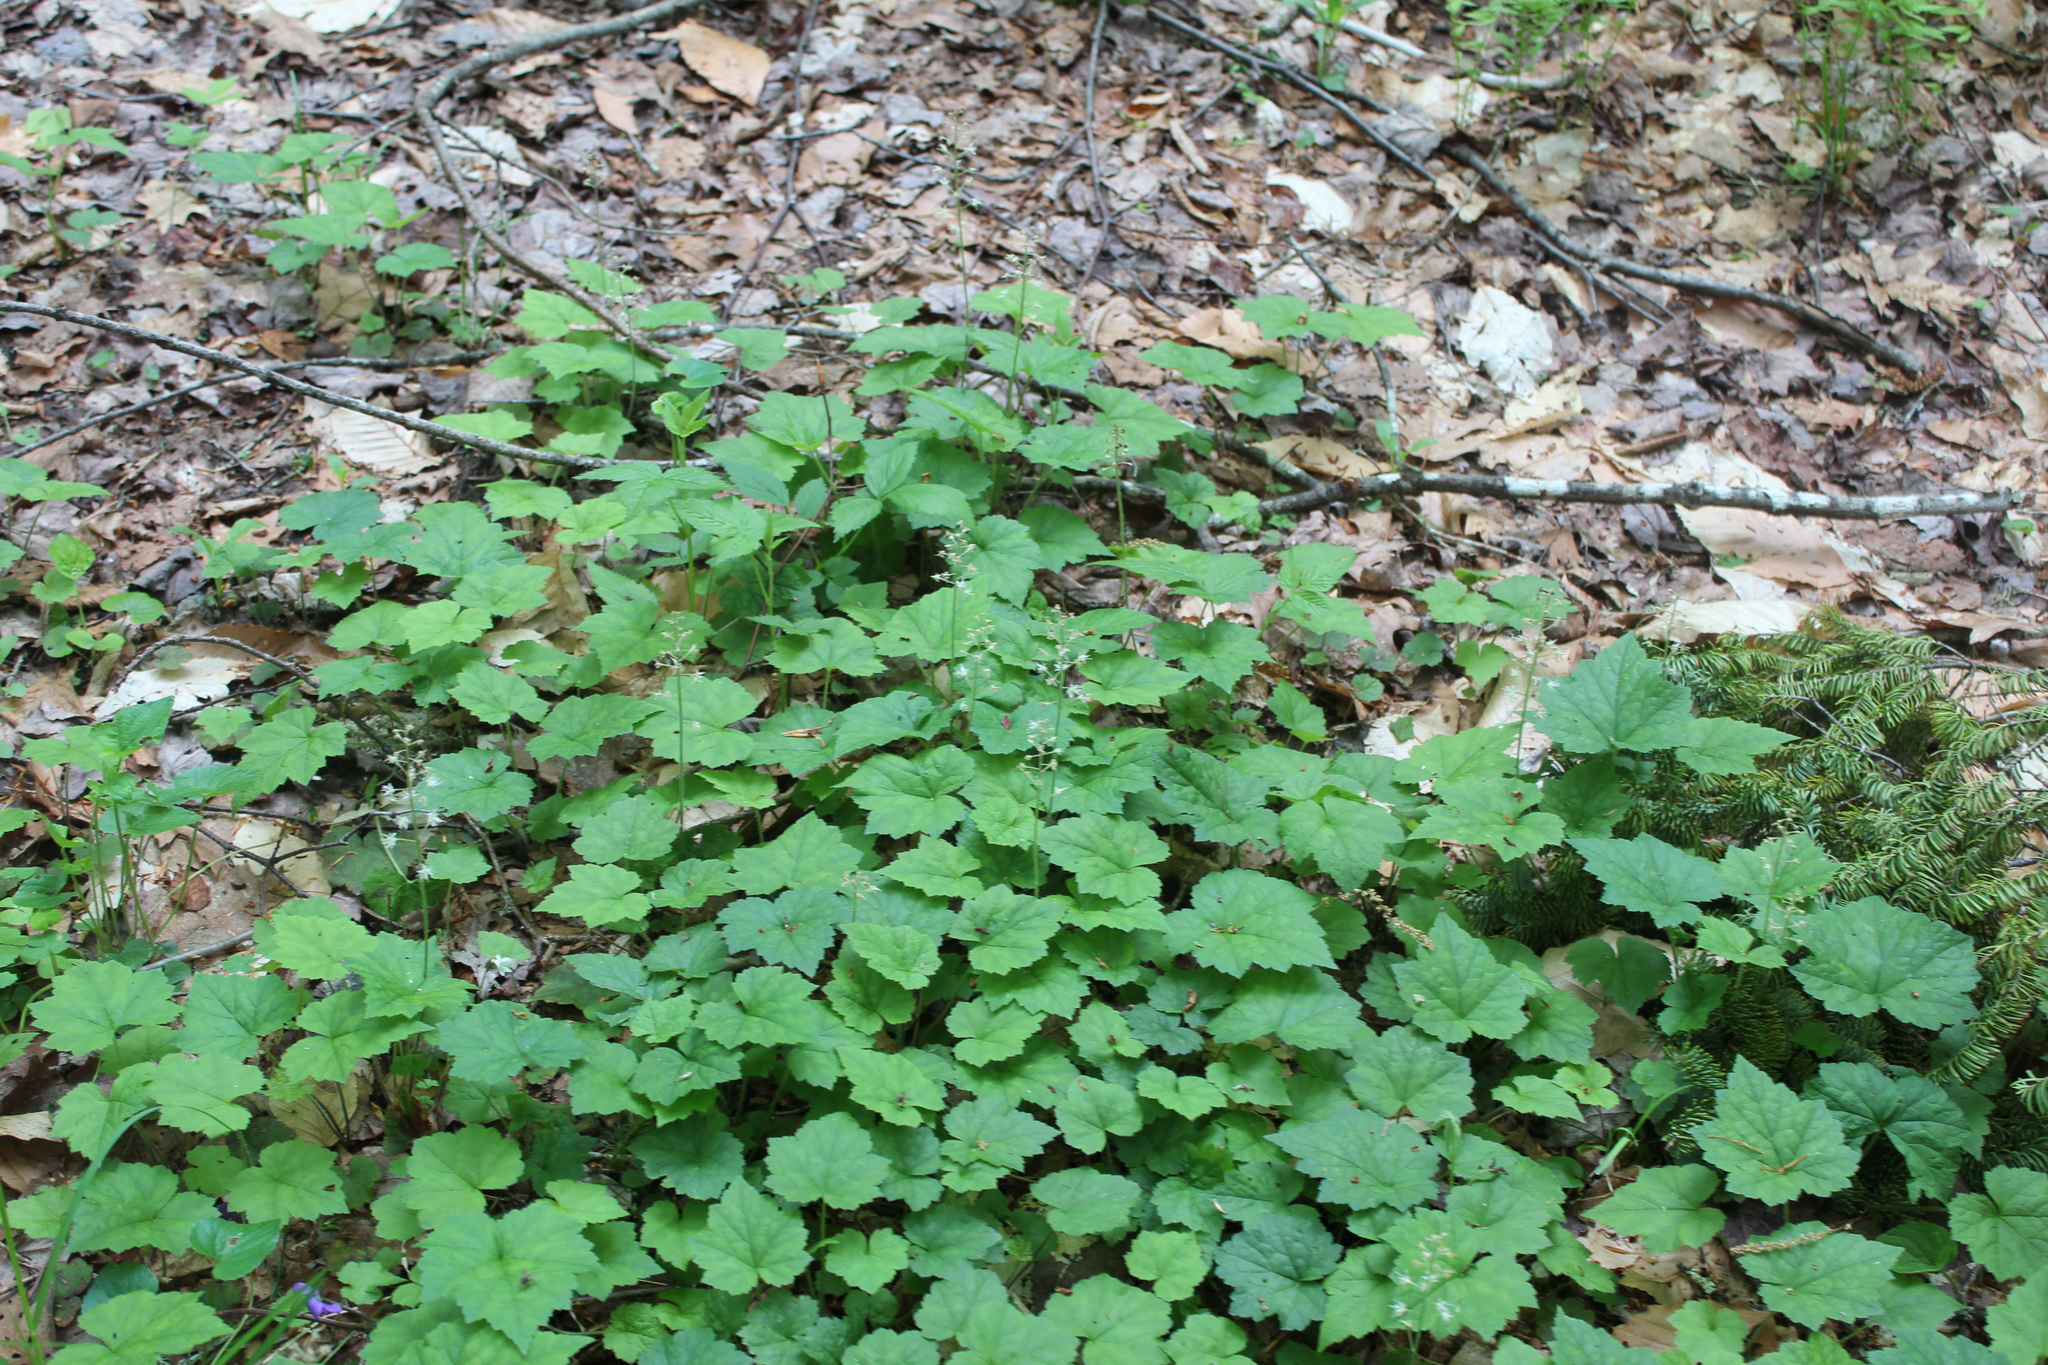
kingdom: Plantae
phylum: Tracheophyta
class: Magnoliopsida
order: Saxifragales
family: Saxifragaceae
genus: Tiarella
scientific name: Tiarella stolonifera
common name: Stoloniferous foamflower
